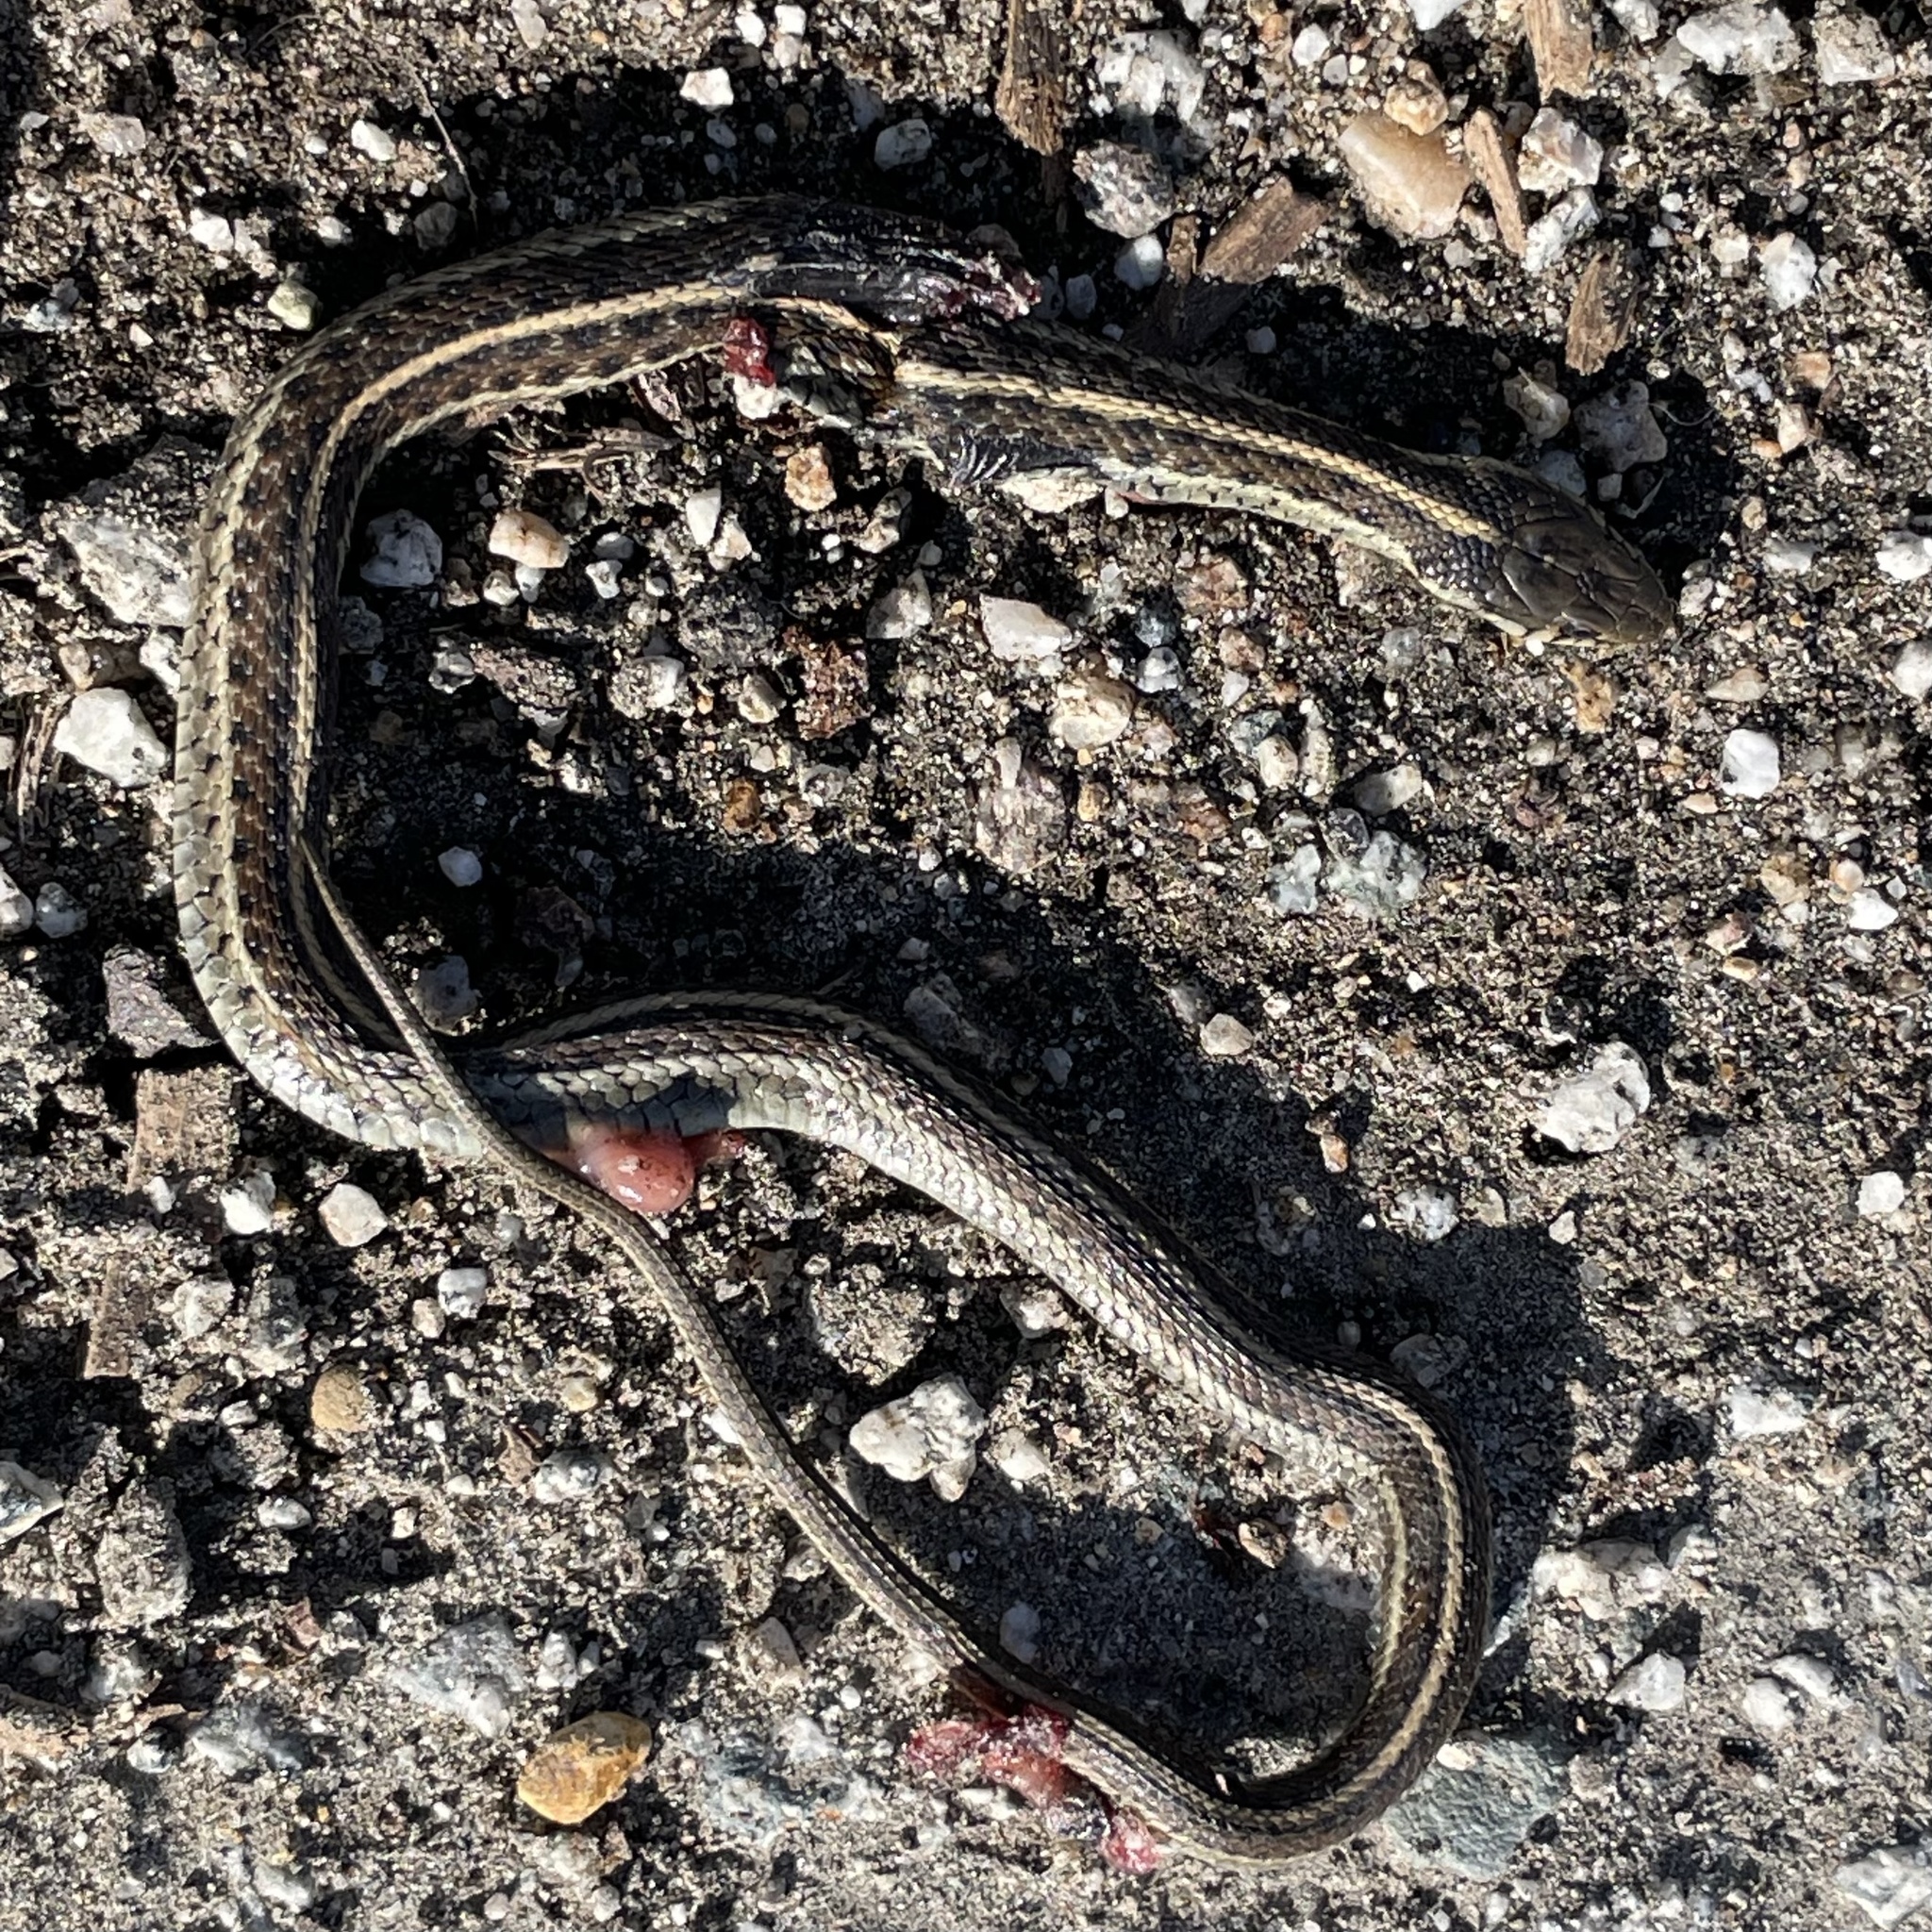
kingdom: Animalia
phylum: Chordata
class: Squamata
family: Colubridae
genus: Thamnophis
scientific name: Thamnophis elegans
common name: Western terrestrial garter snake
